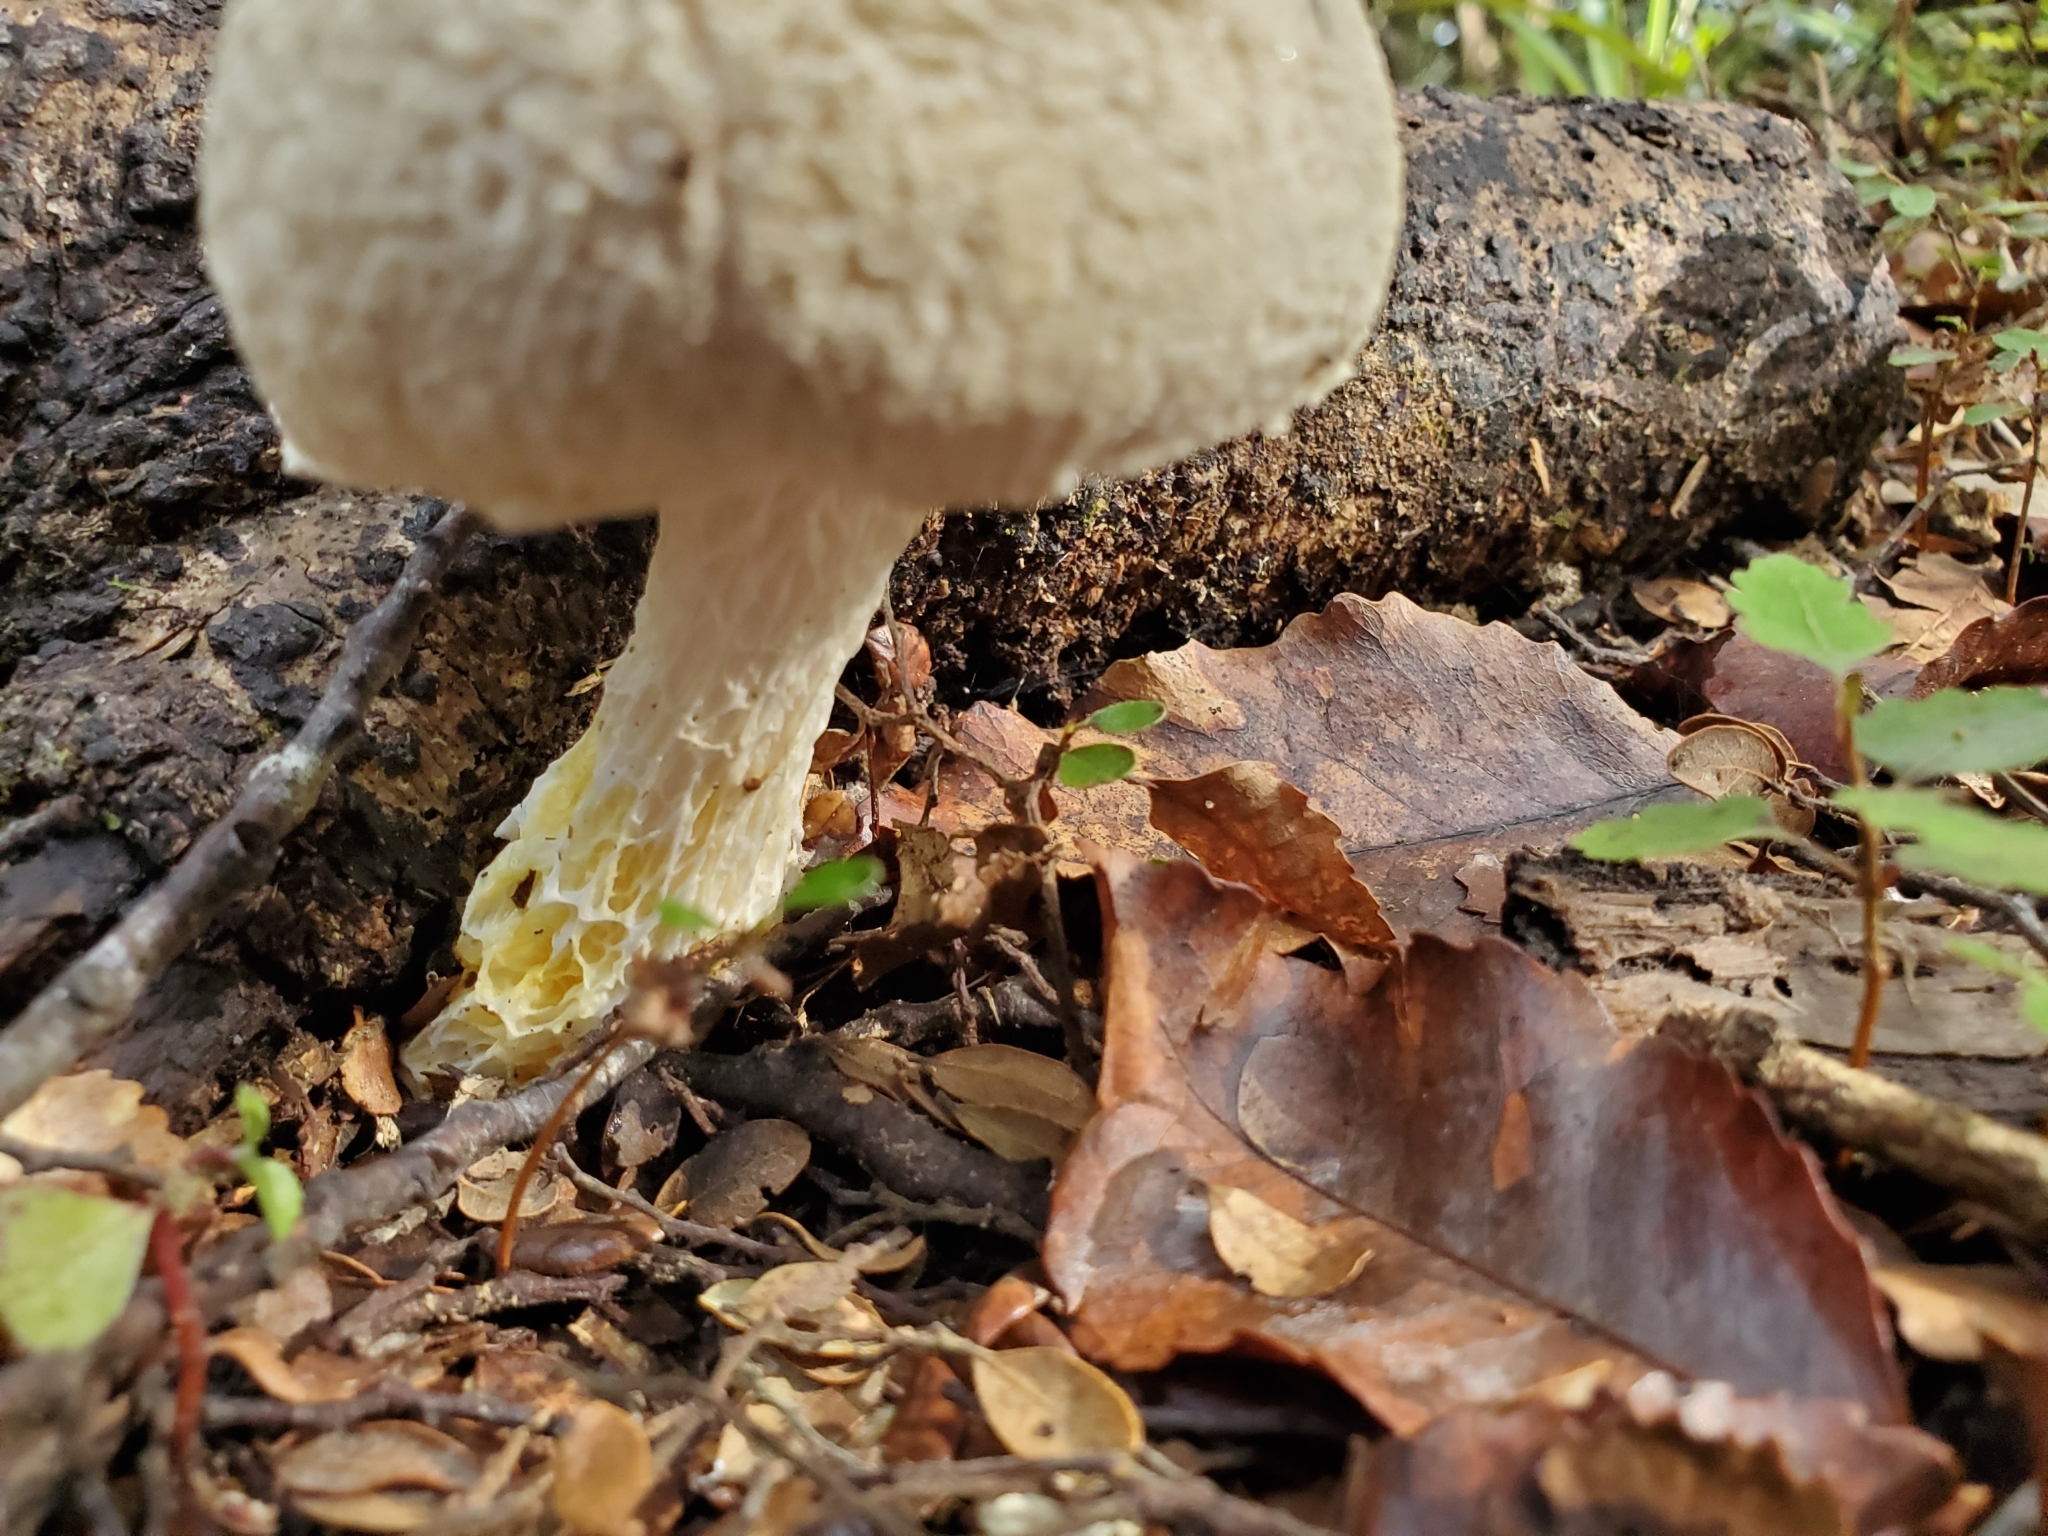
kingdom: Fungi
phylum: Basidiomycota
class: Agaricomycetes
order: Boletales
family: Boletaceae
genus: Fistulinella
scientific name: Fistulinella nivea
